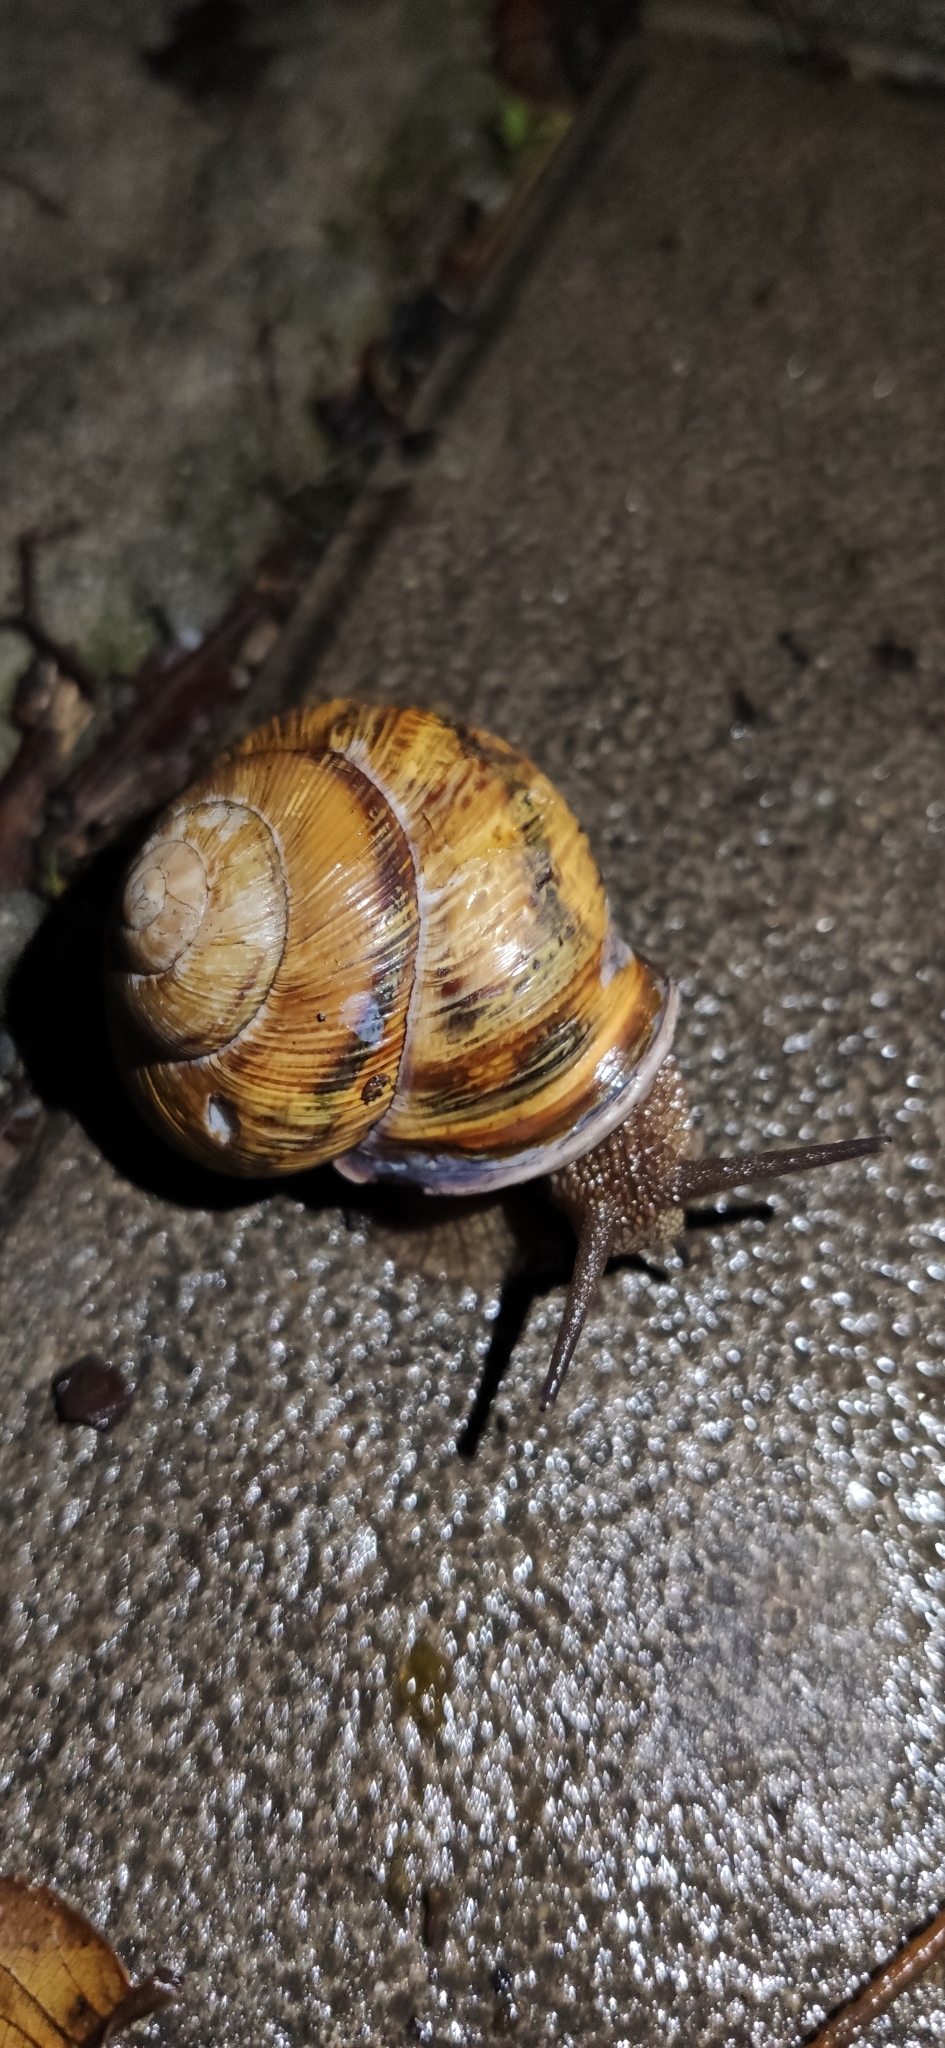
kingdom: Animalia
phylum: Mollusca
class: Gastropoda
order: Stylommatophora
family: Helicidae
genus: Caucasotachea
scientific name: Caucasotachea atrolabiata
